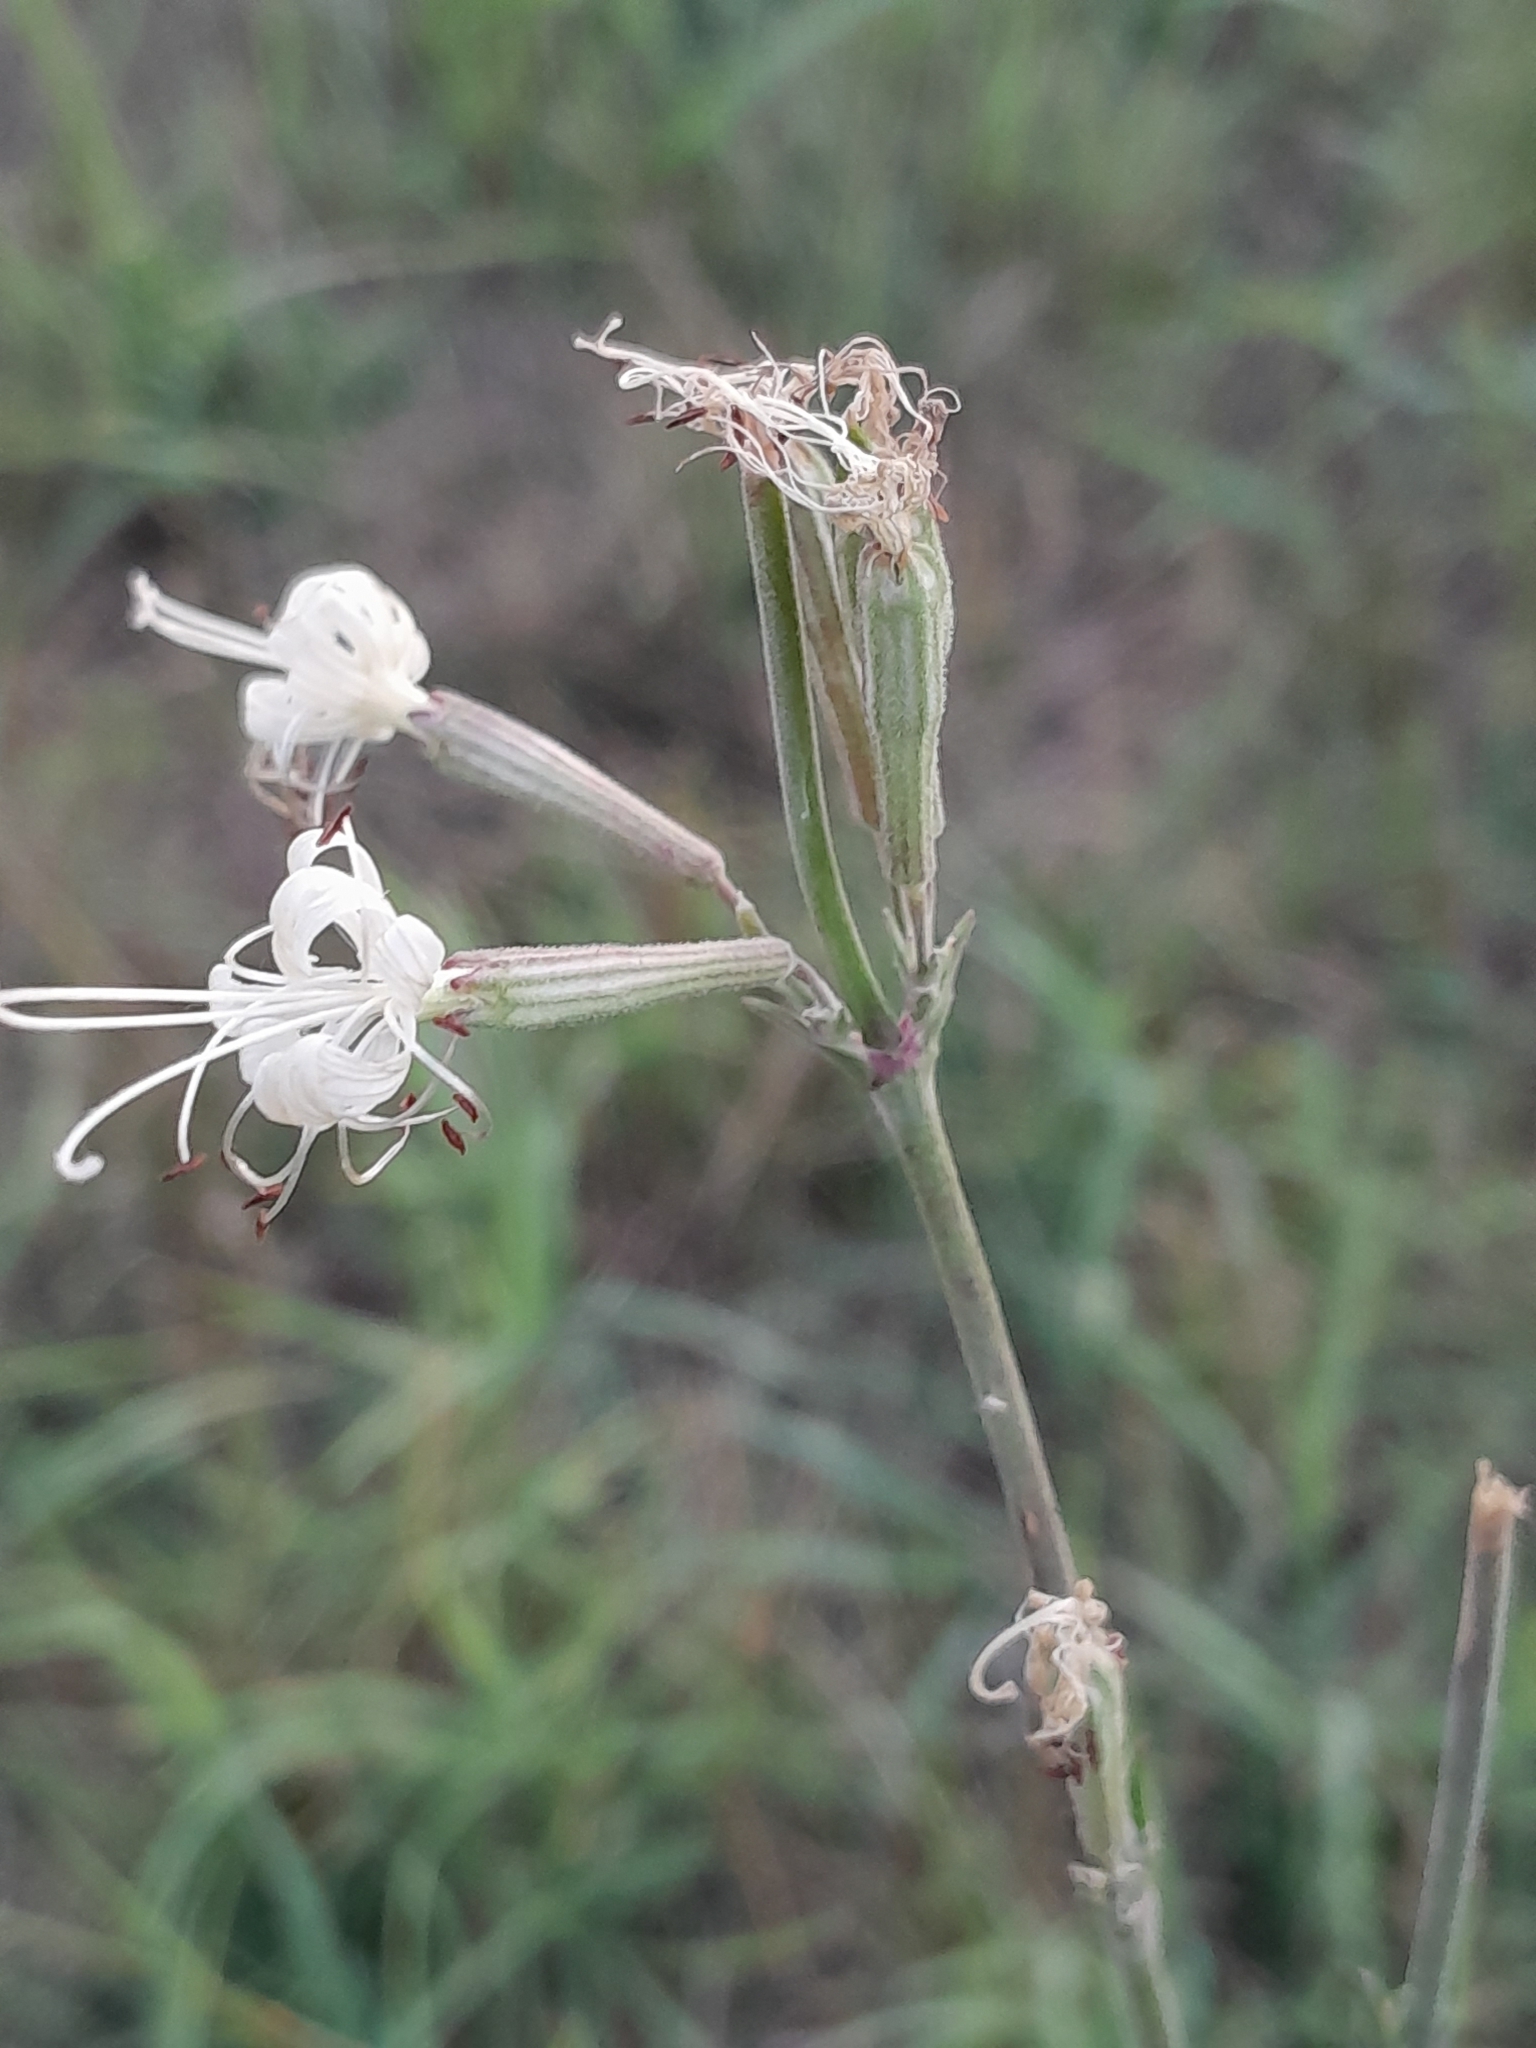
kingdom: Plantae
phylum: Tracheophyta
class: Magnoliopsida
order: Caryophyllales
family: Caryophyllaceae
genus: Silene
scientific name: Silene multiflora
